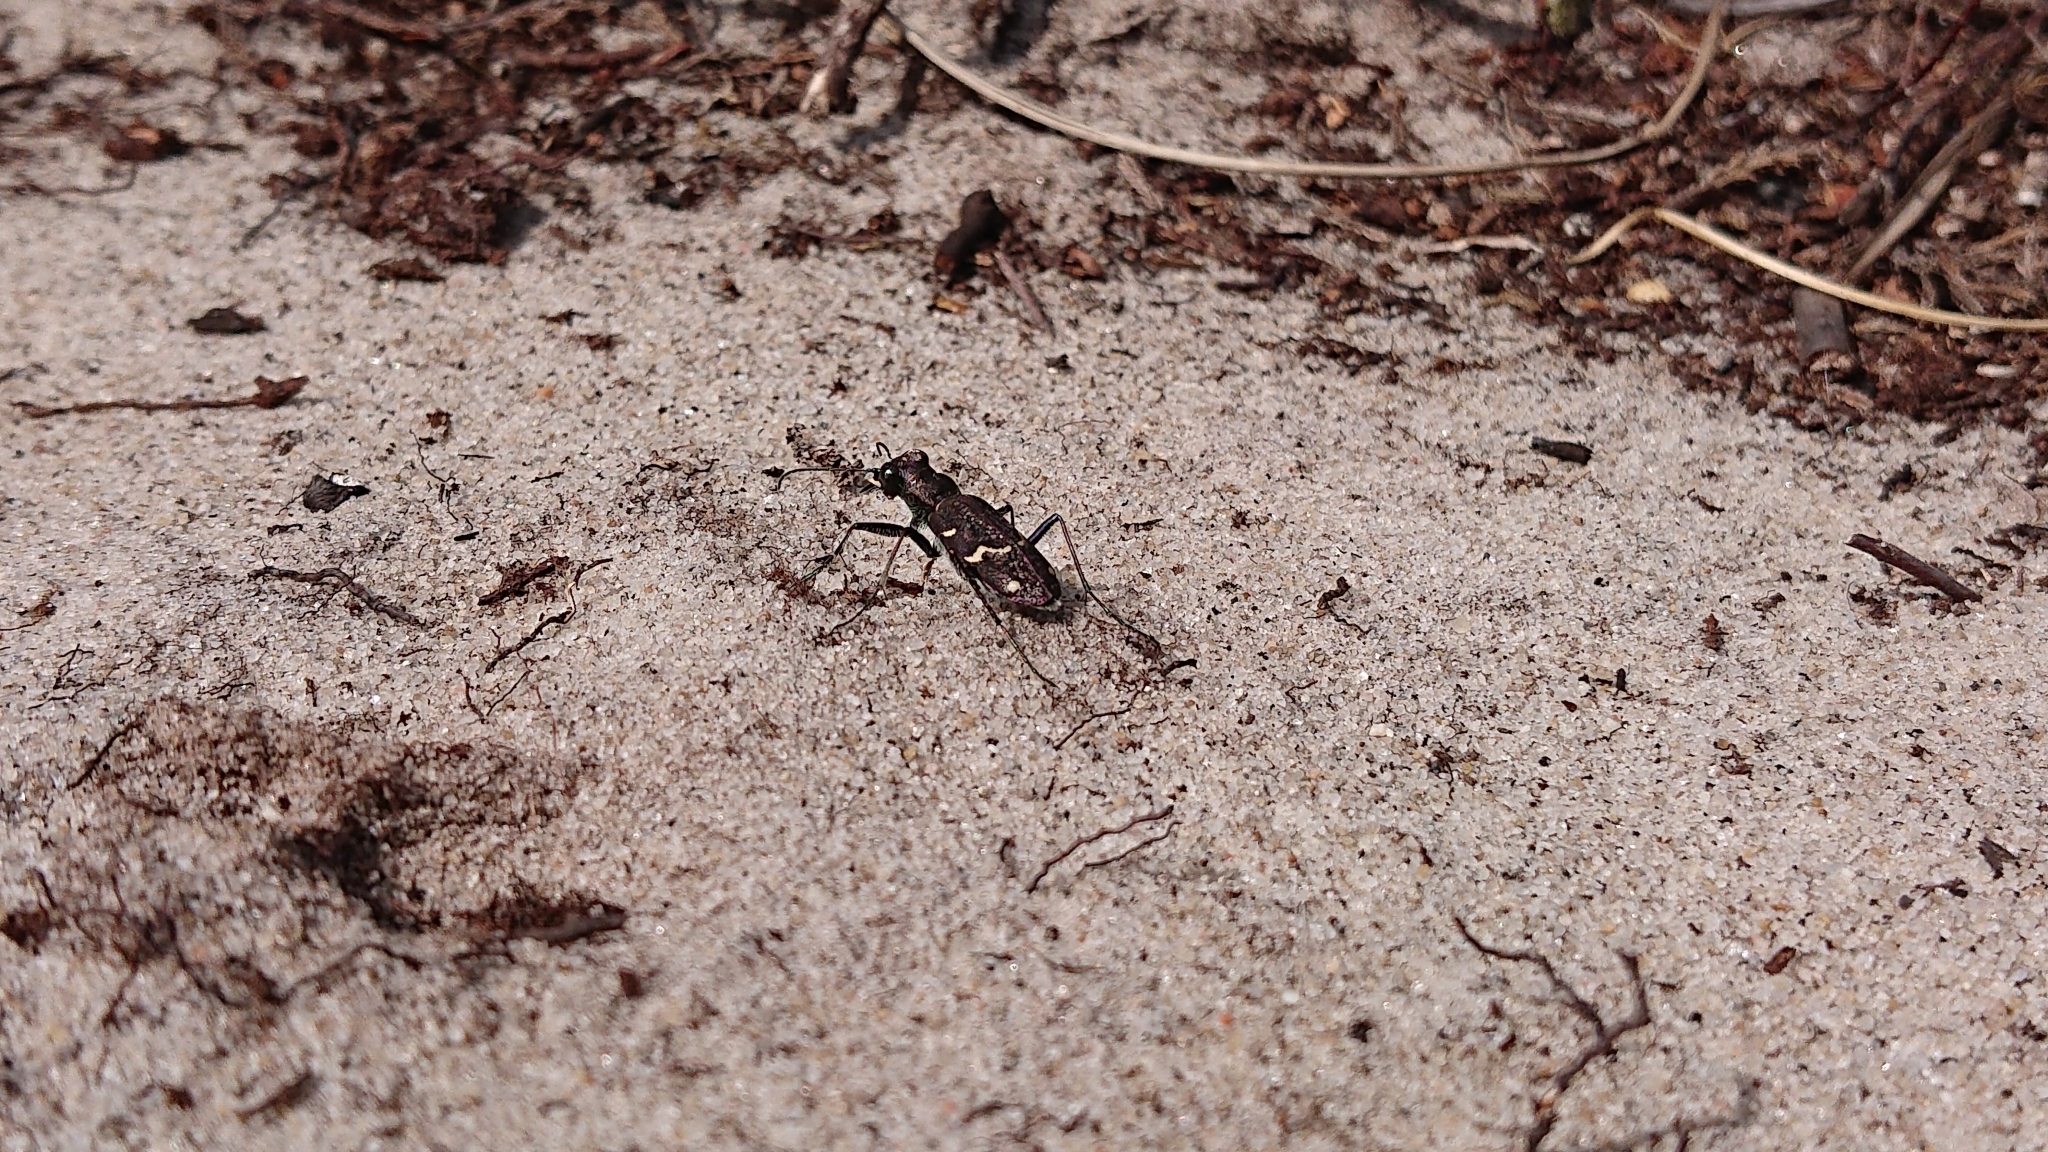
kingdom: Animalia
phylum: Arthropoda
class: Insecta
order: Coleoptera
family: Carabidae
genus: Cicindela
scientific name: Cicindela sylvatica
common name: Heath tiger beetle
